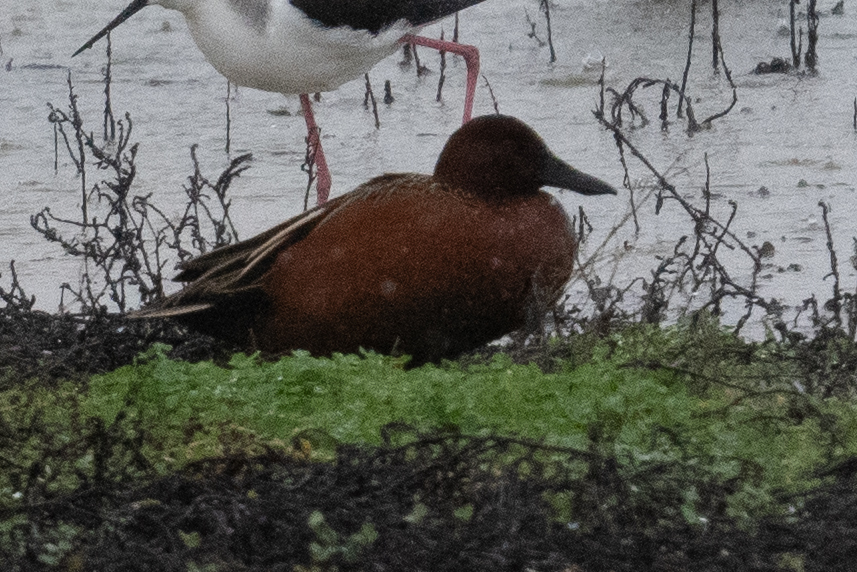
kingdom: Animalia
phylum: Chordata
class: Aves
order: Anseriformes
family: Anatidae
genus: Spatula
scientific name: Spatula cyanoptera
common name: Cinnamon teal
